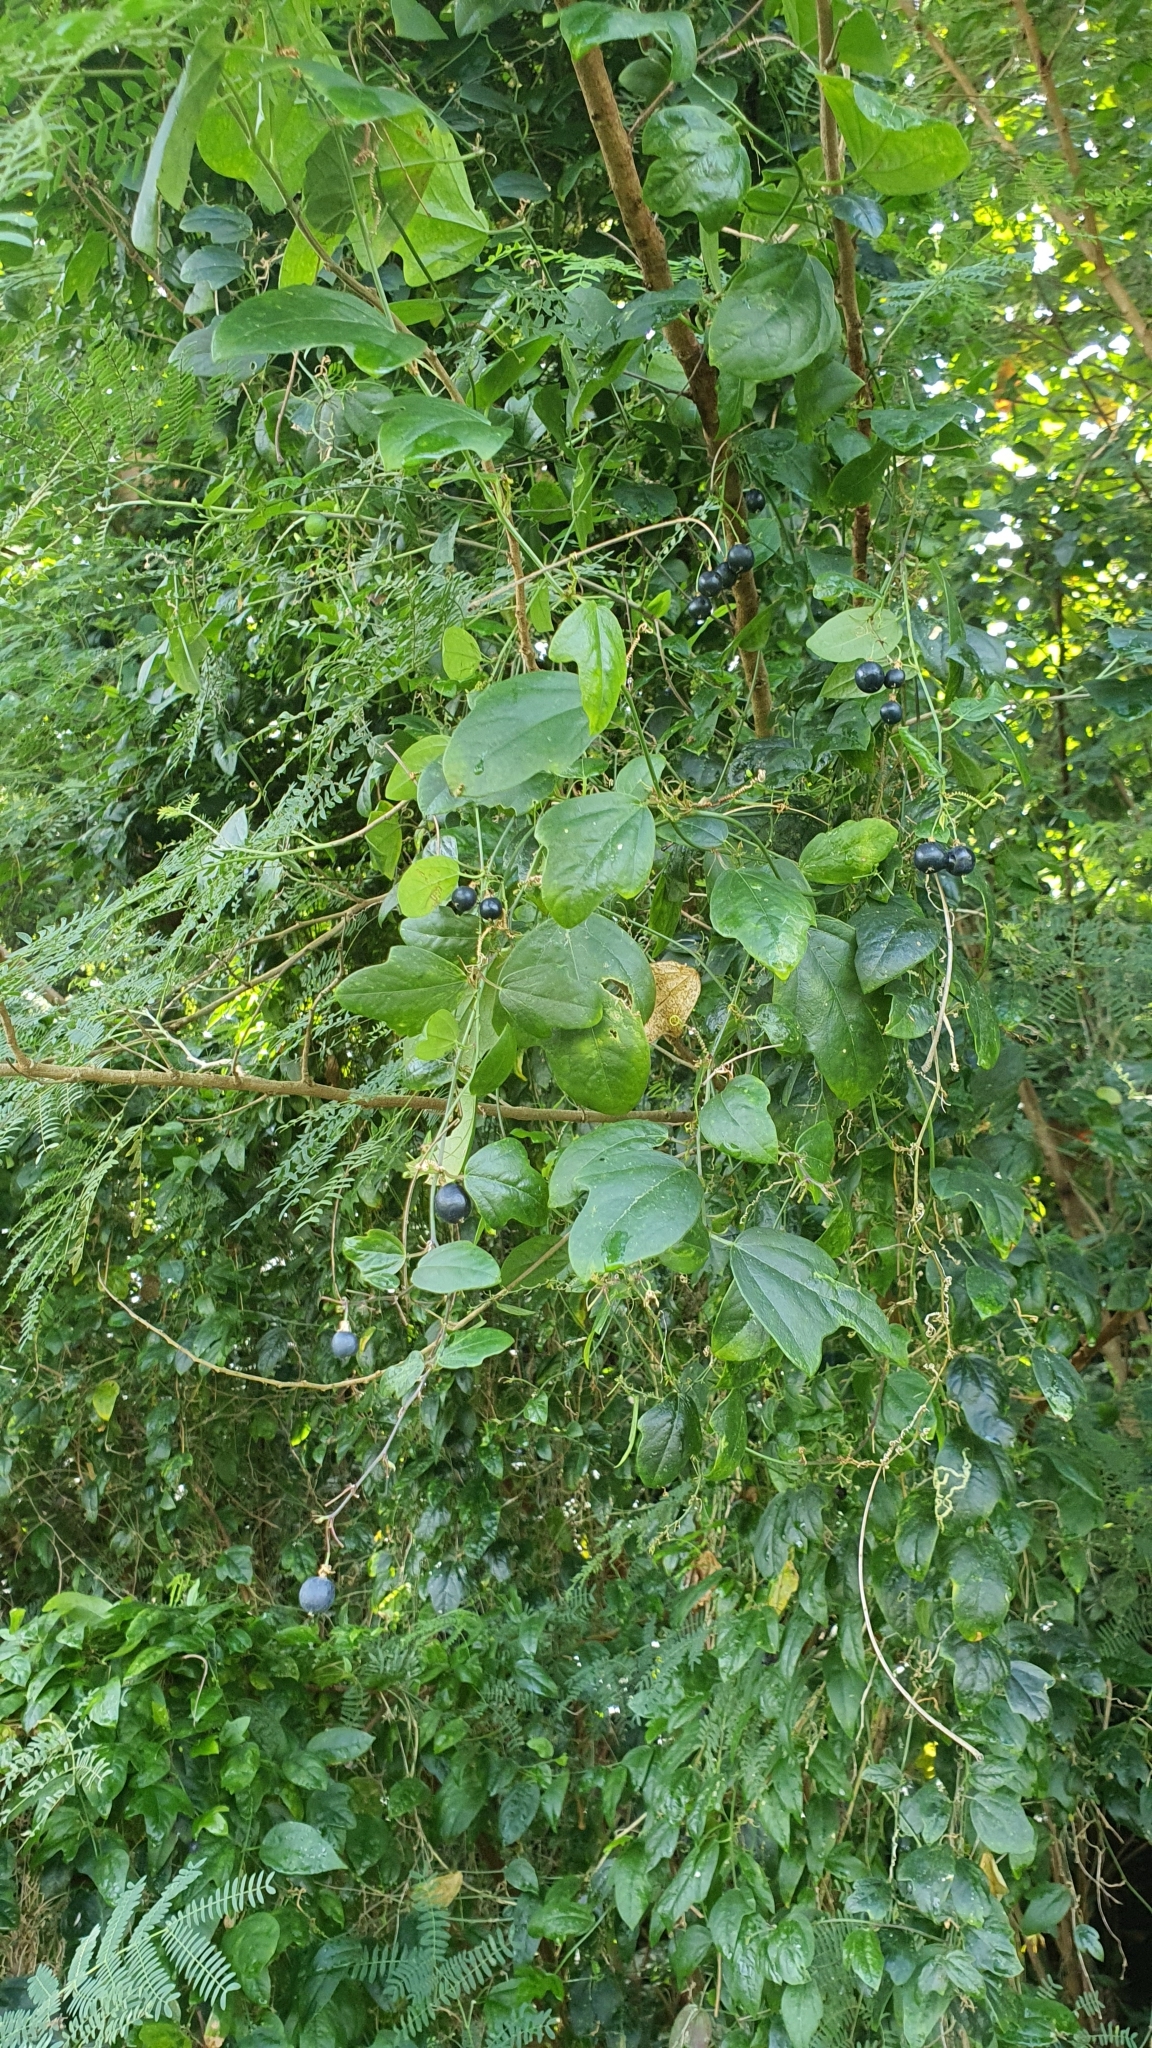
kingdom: Plantae
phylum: Tracheophyta
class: Magnoliopsida
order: Malpighiales
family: Passifloraceae
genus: Passiflora
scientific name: Passiflora suberosa
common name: Wild passionfruit
